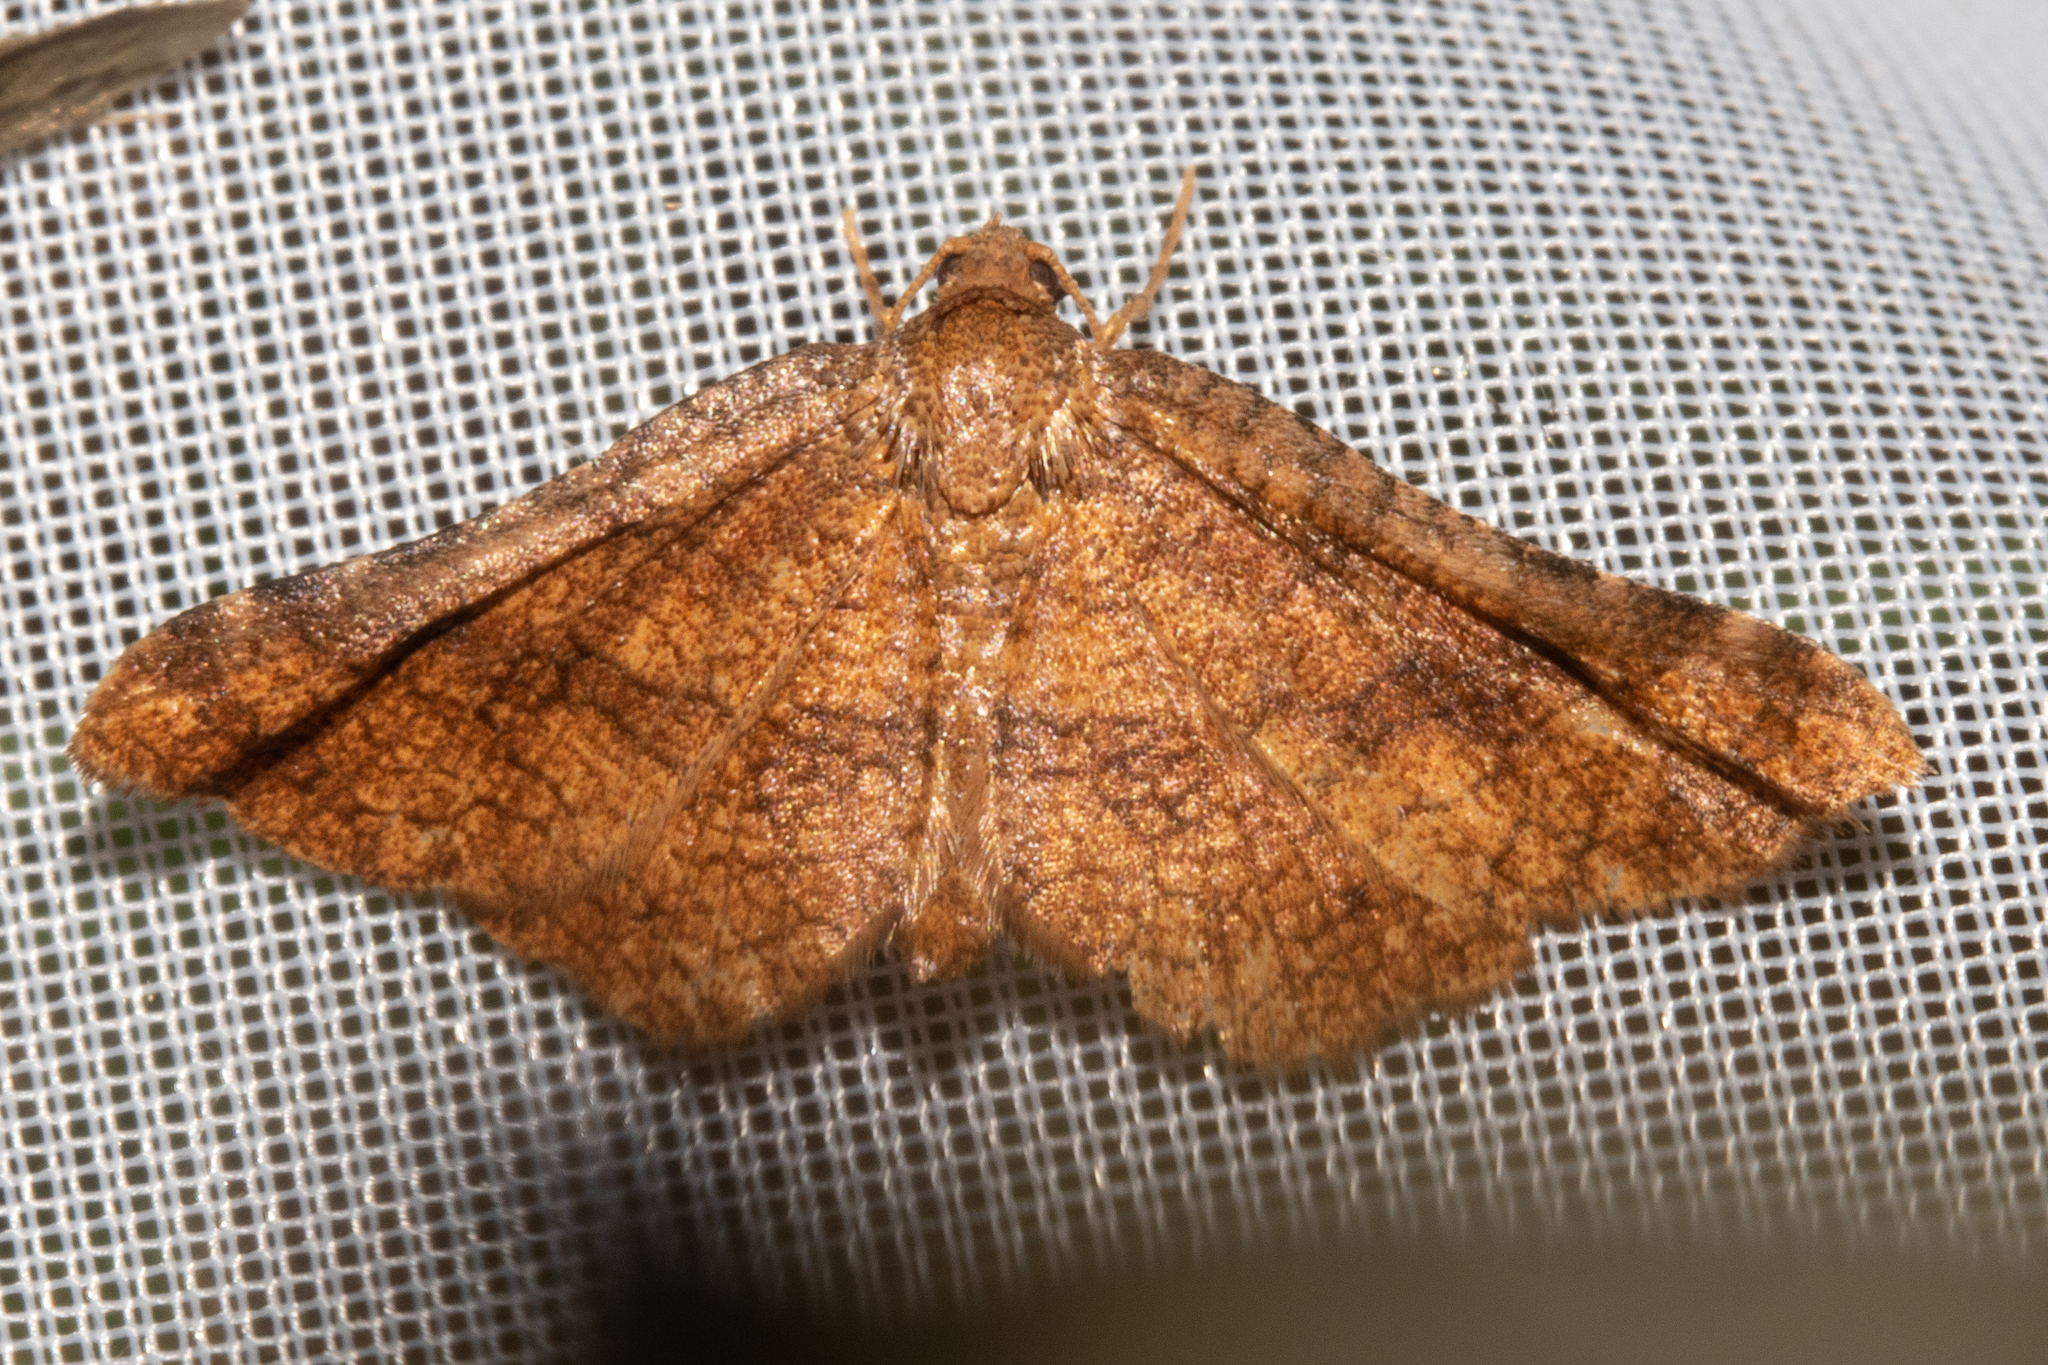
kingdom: Animalia
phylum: Arthropoda
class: Insecta
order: Lepidoptera
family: Thyrididae
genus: Morova
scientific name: Morova subfasciata
